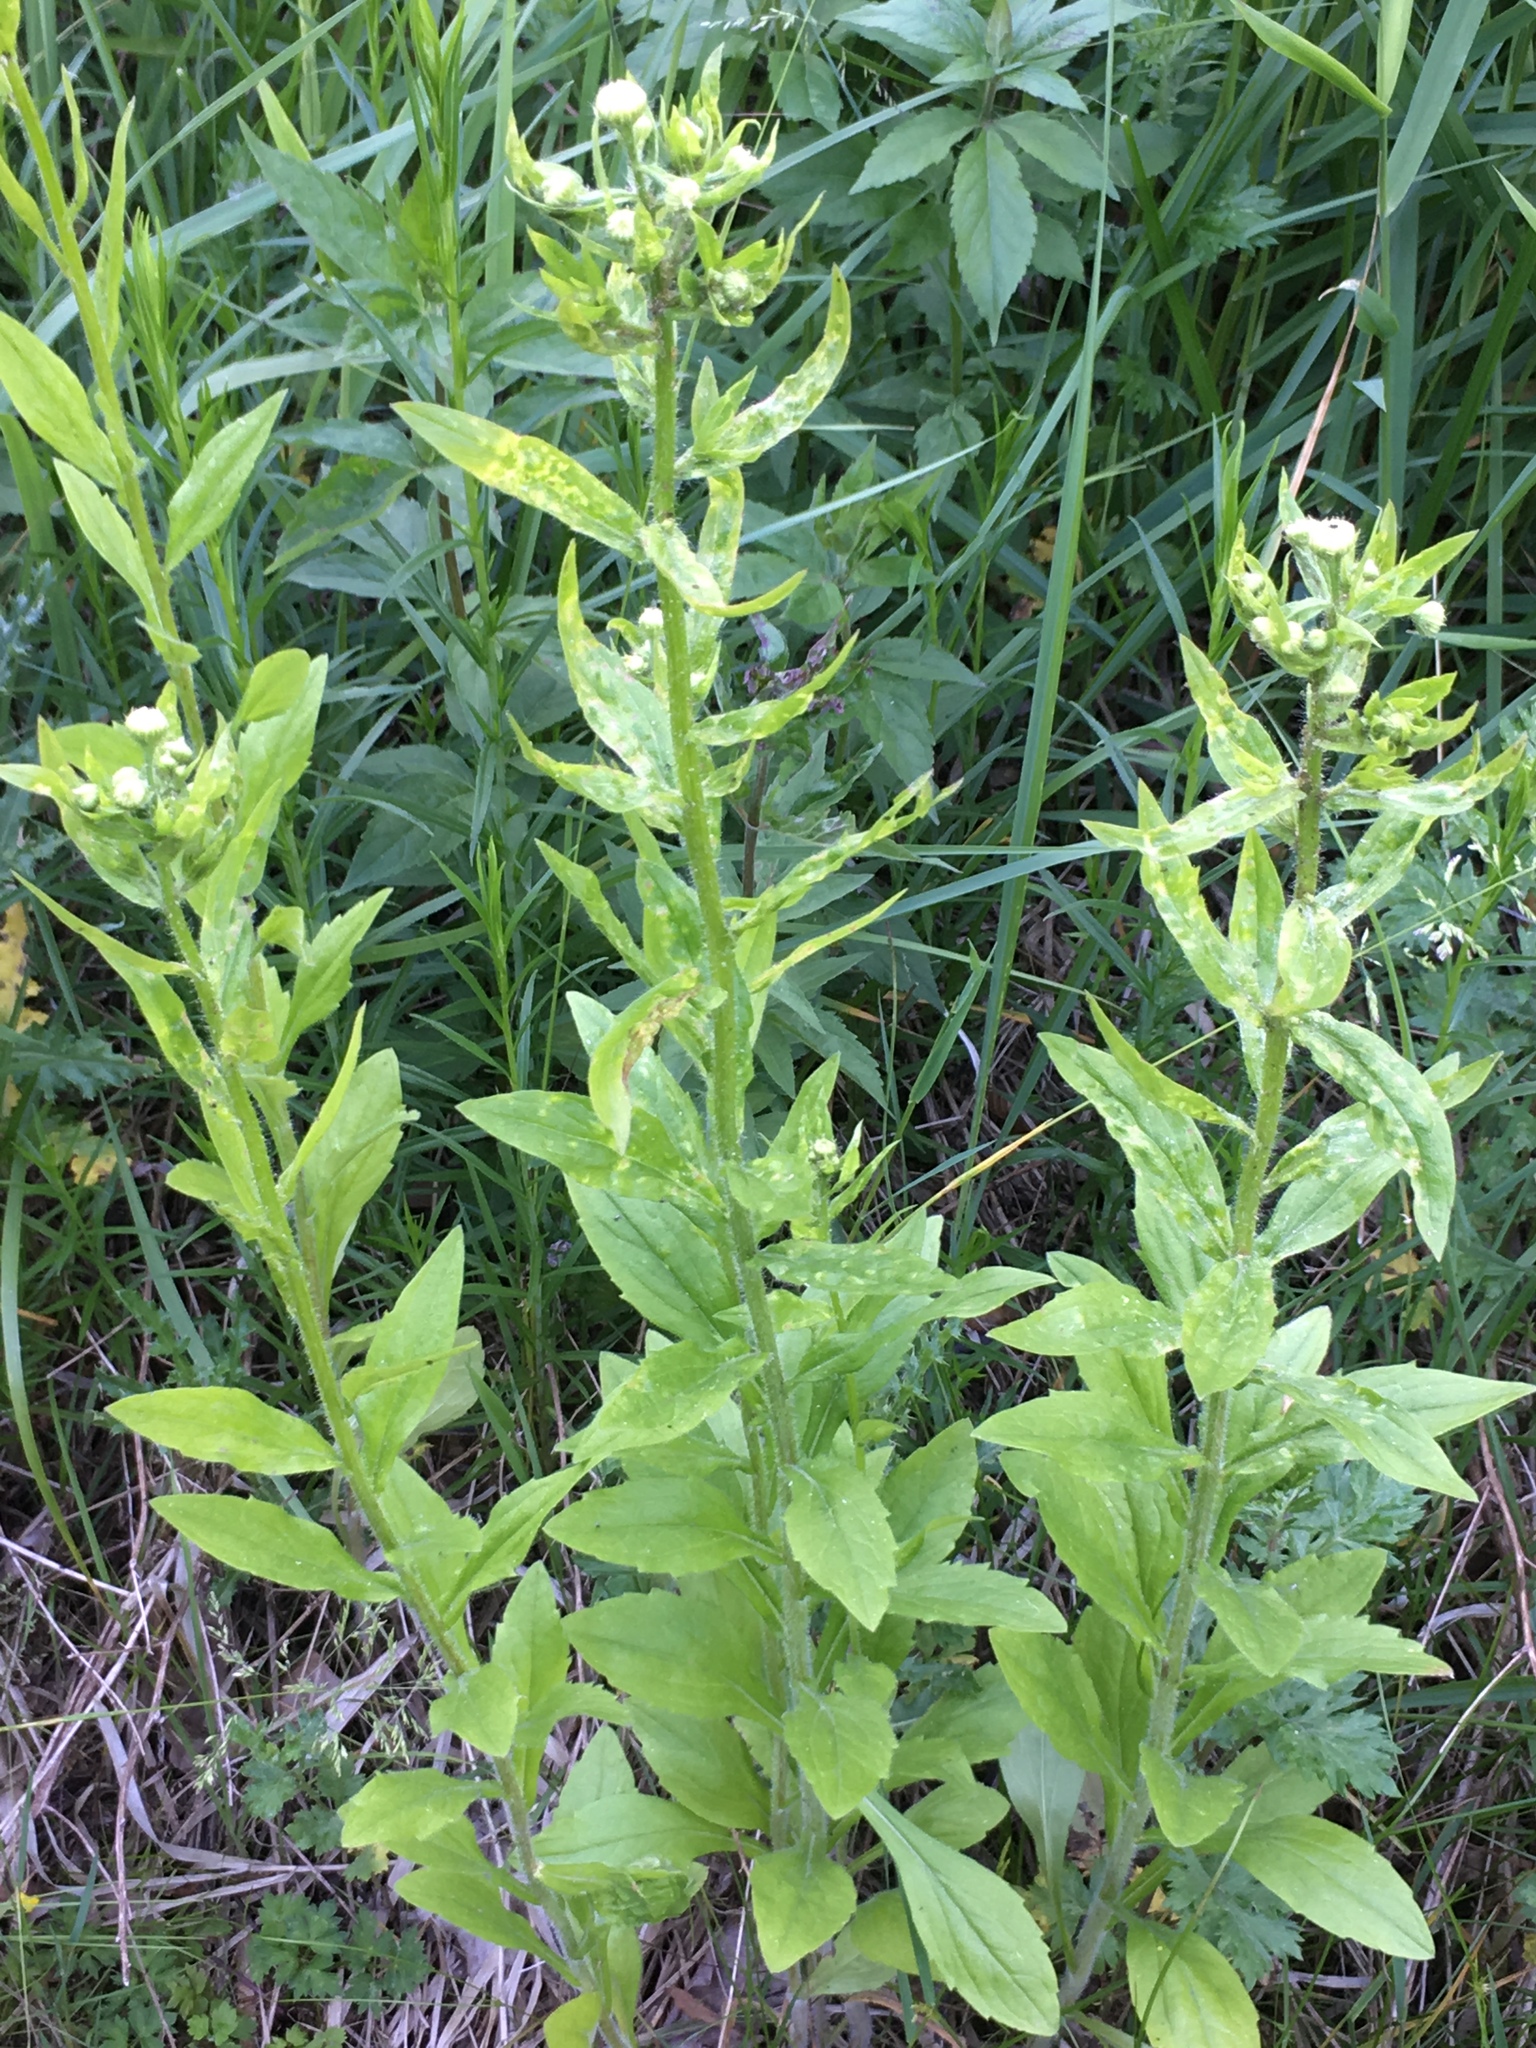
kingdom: Plantae
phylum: Tracheophyta
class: Magnoliopsida
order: Asterales
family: Asteraceae
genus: Erigeron
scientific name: Erigeron annuus
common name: Tall fleabane
